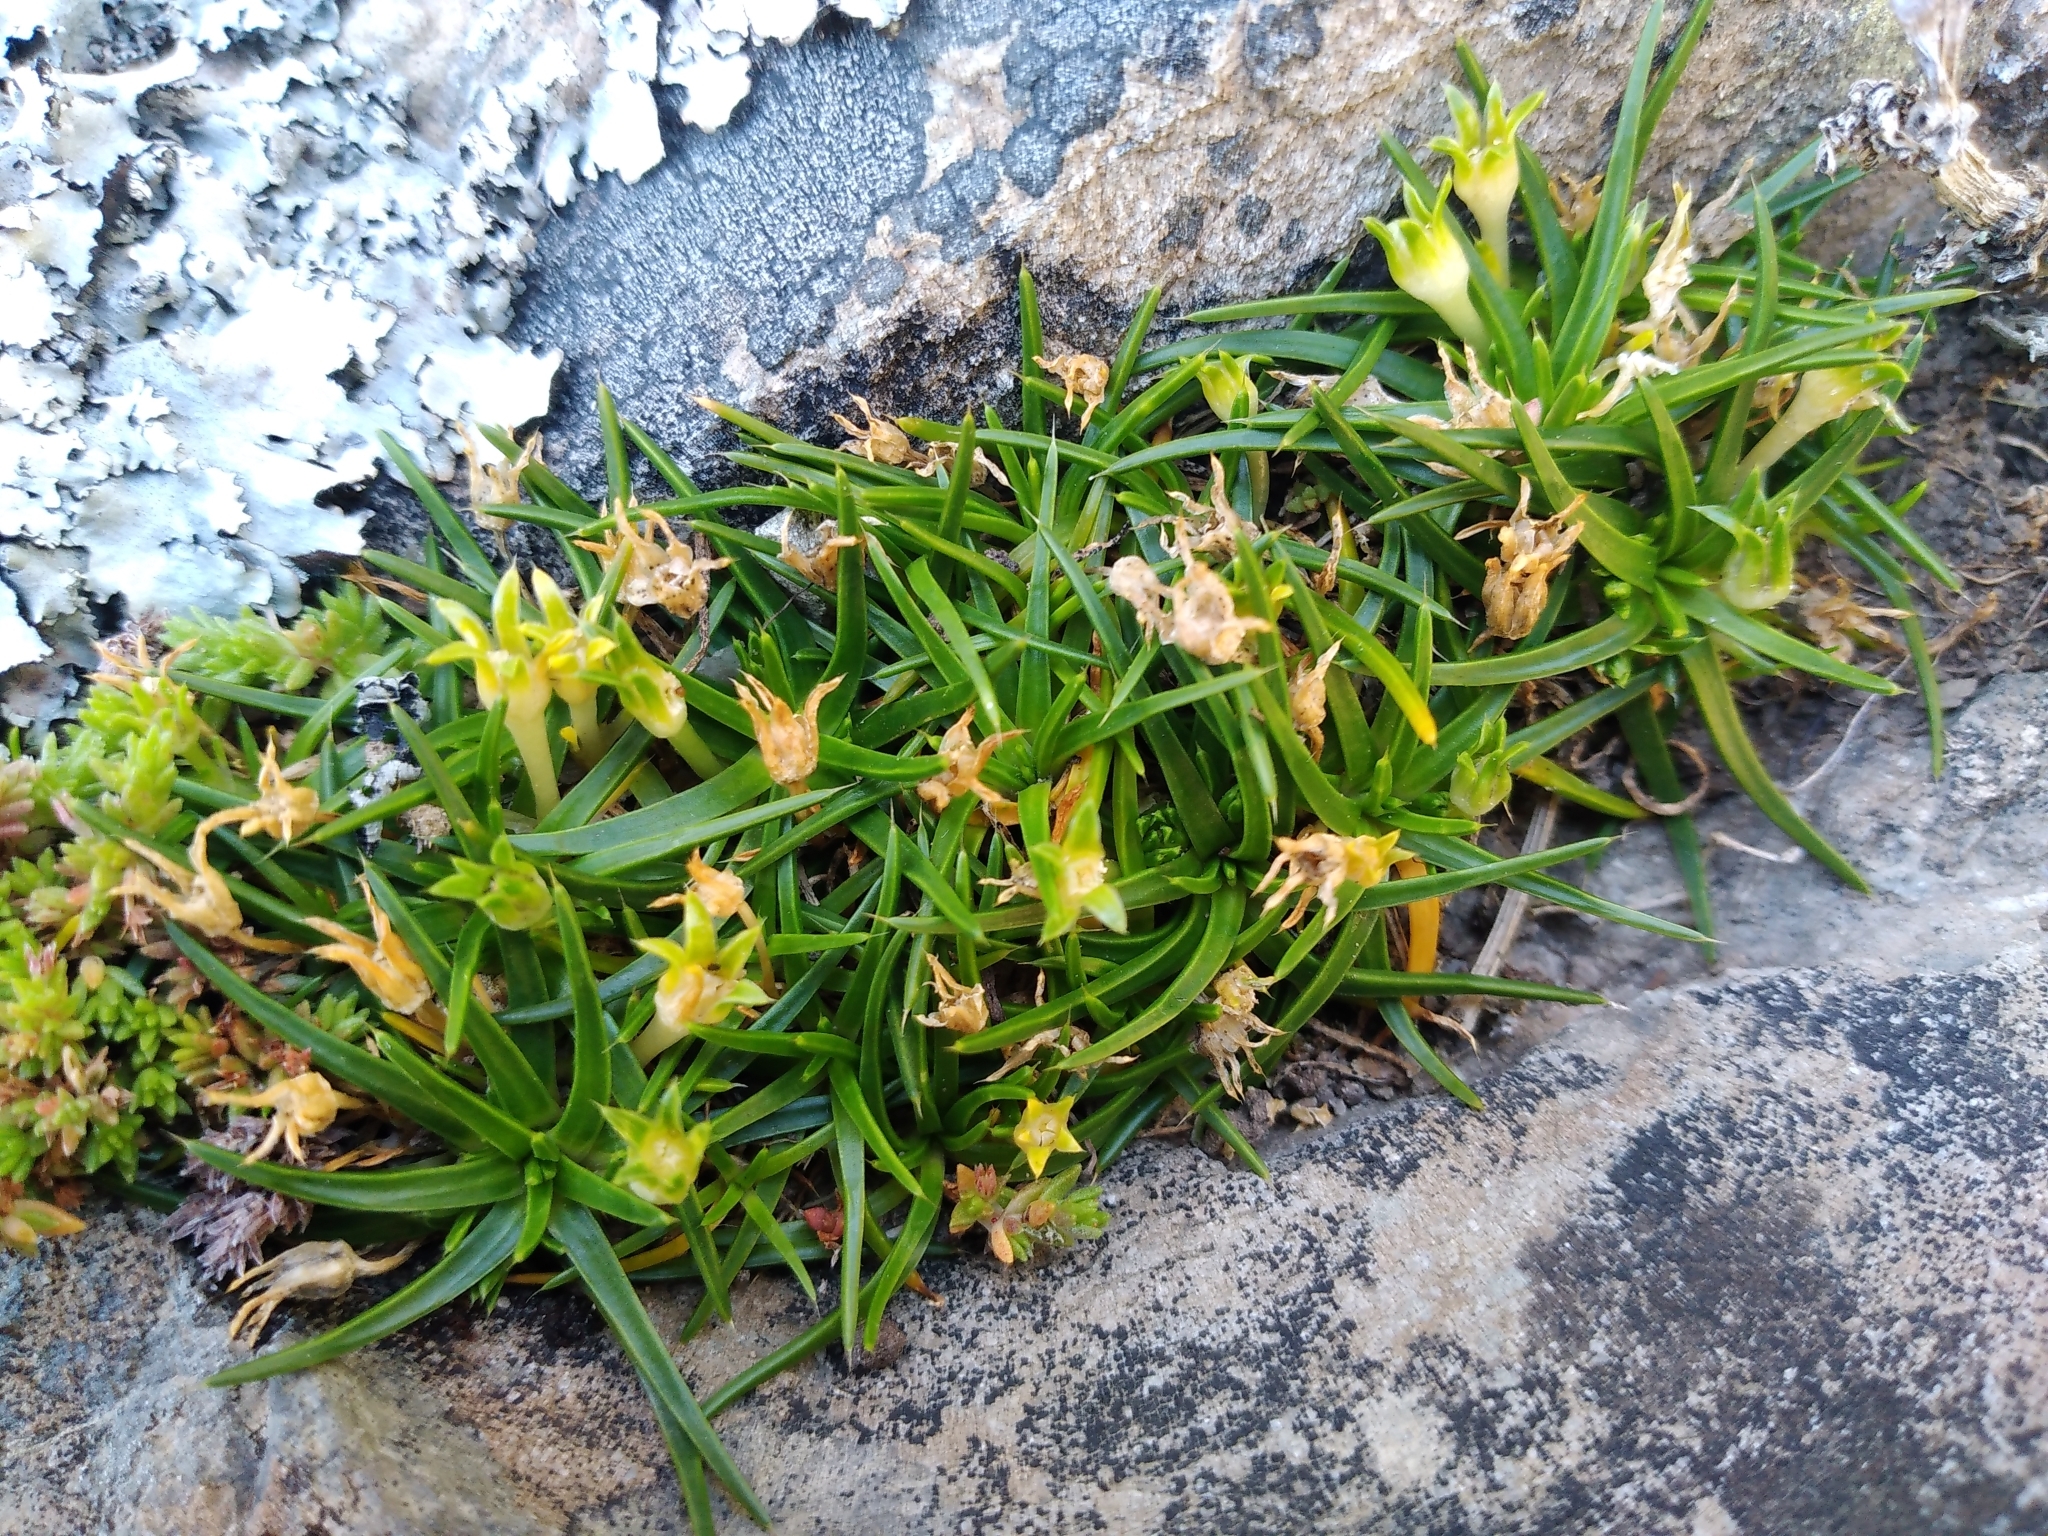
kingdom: Plantae
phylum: Tracheophyta
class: Magnoliopsida
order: Caryophyllales
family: Caryophyllaceae
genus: Colobanthus
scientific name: Colobanthus muelleri
